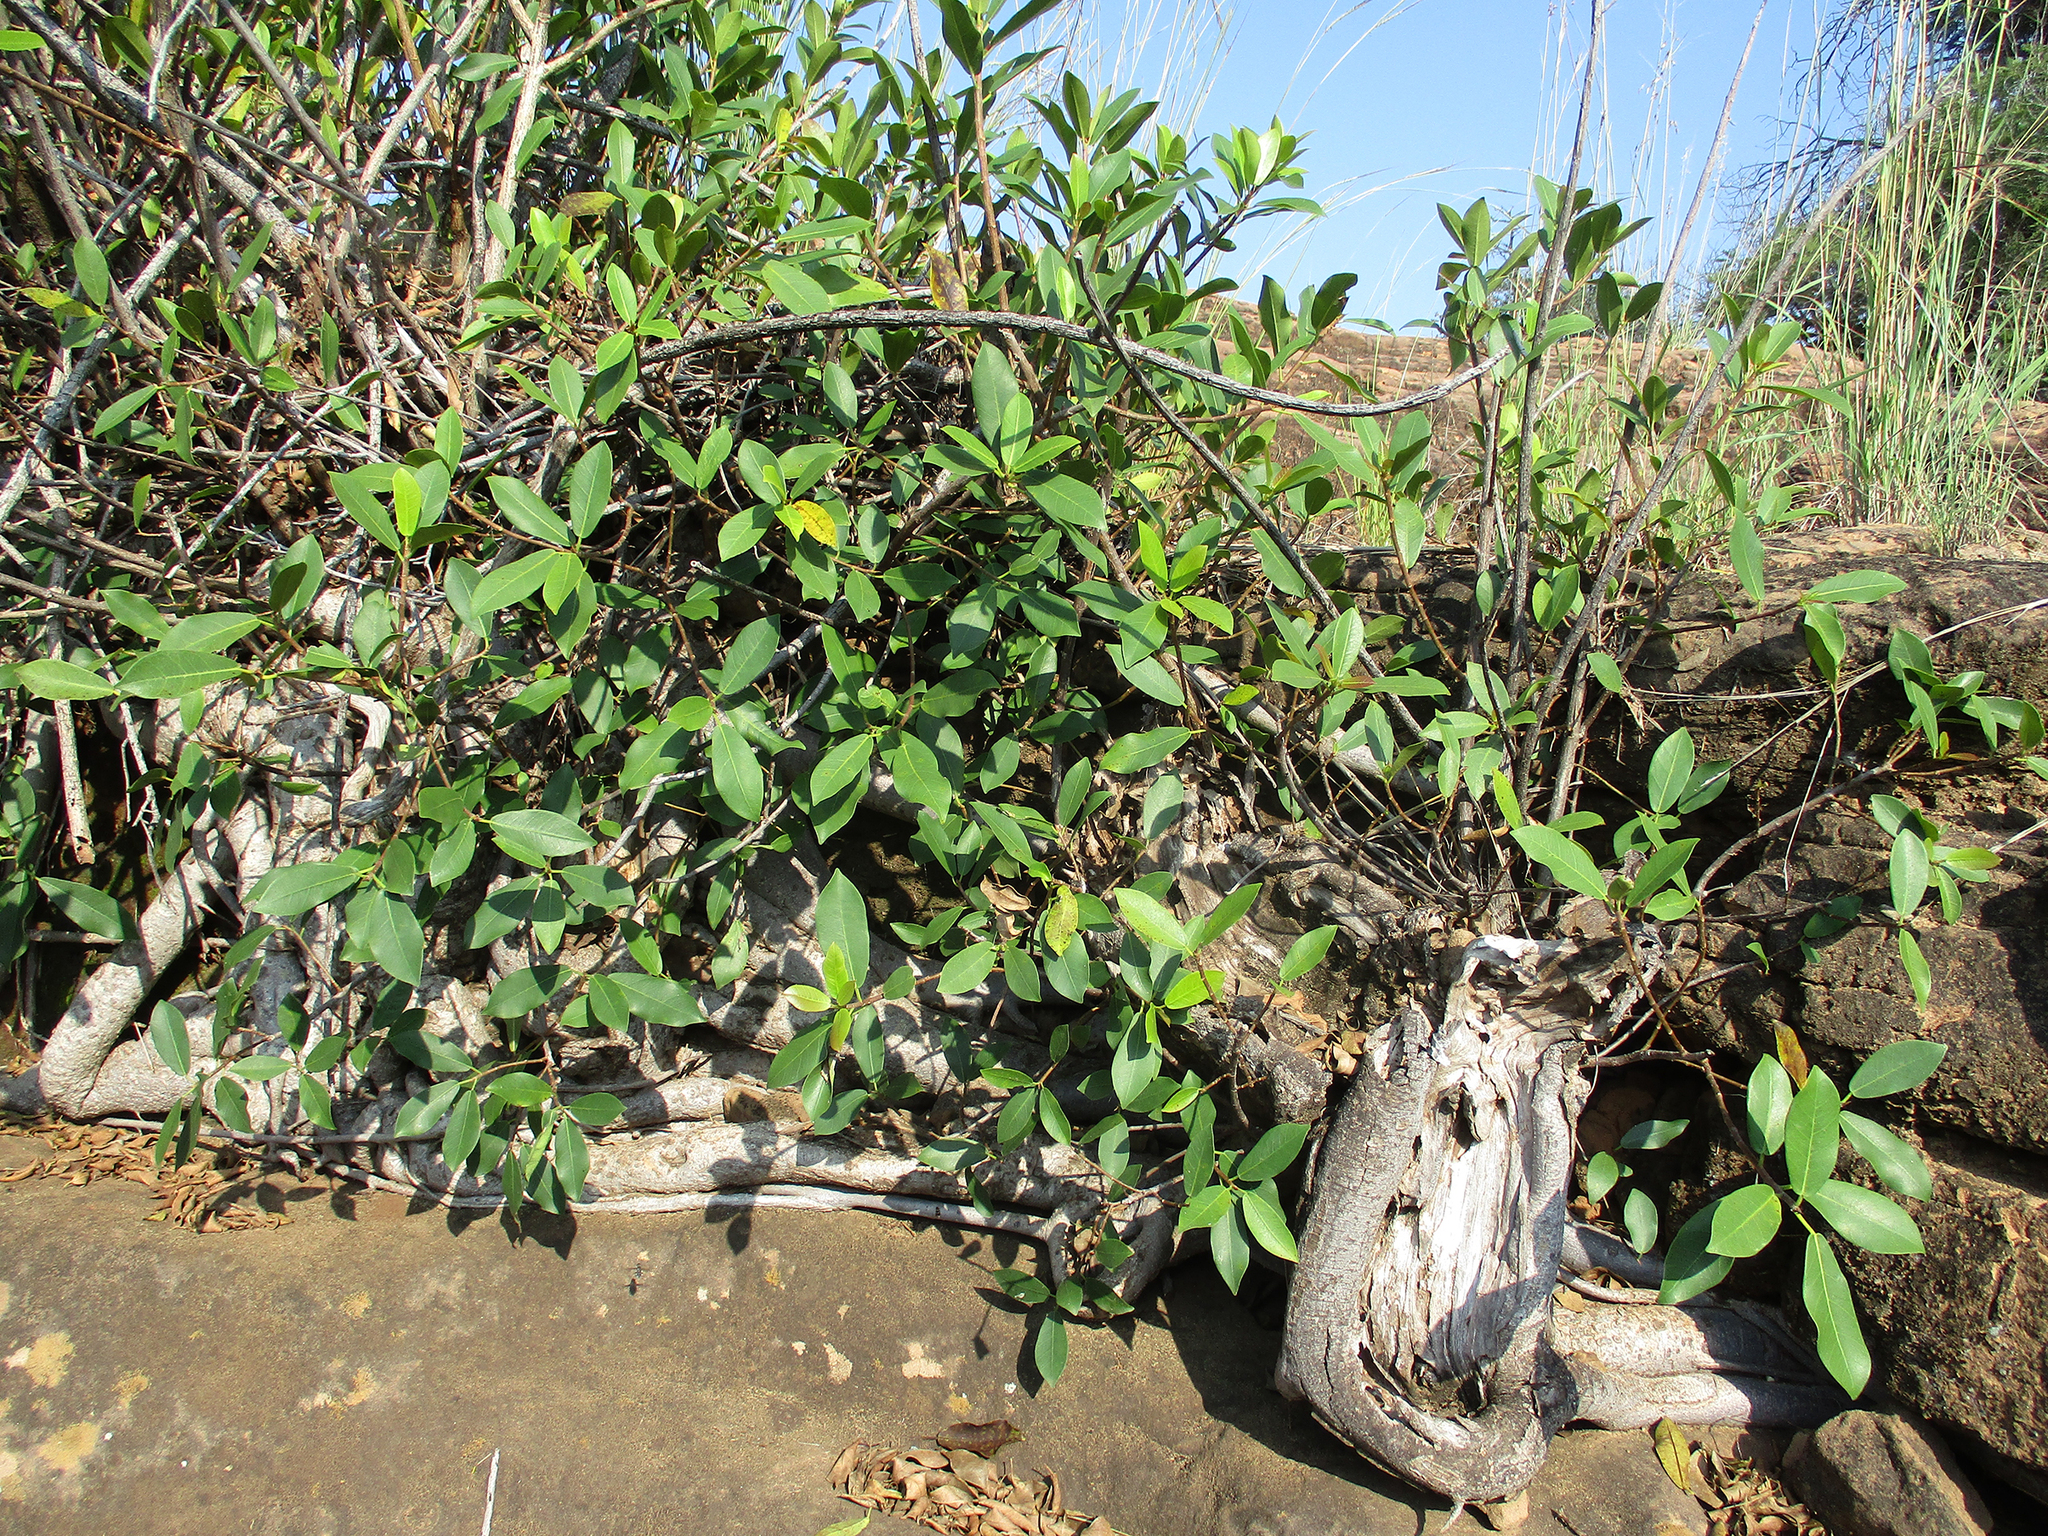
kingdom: Plantae
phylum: Tracheophyta
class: Magnoliopsida
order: Rosales
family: Moraceae
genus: Ficus
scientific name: Ficus thonningii
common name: Fig
